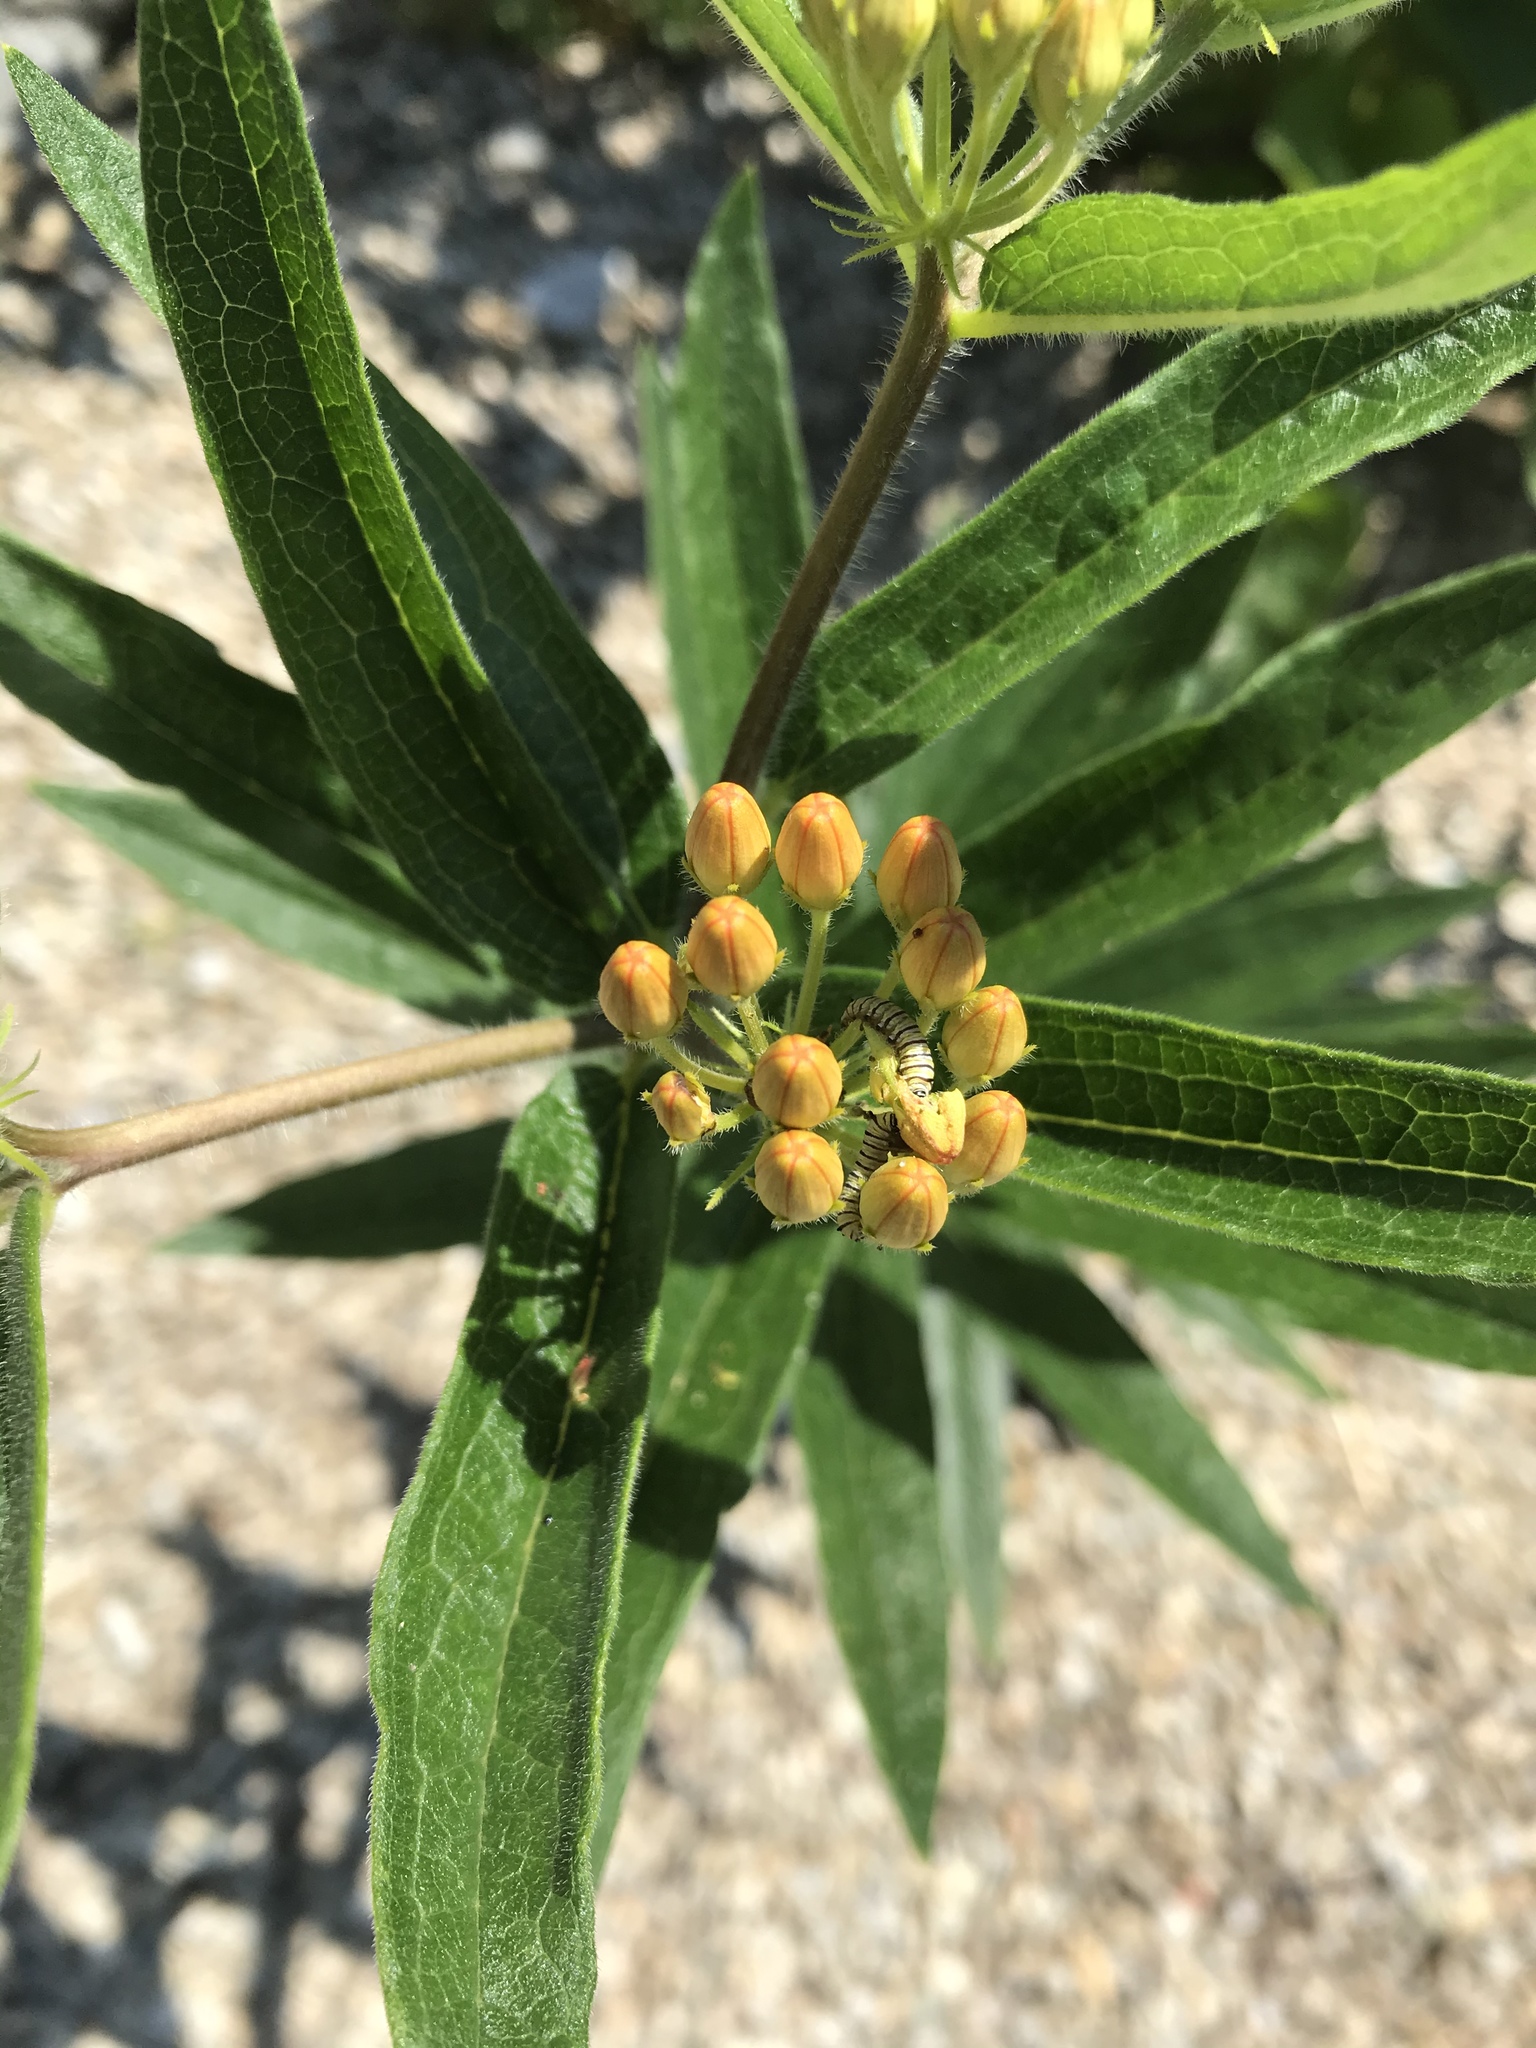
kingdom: Animalia
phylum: Arthropoda
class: Insecta
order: Lepidoptera
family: Nymphalidae
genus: Danaus
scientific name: Danaus plexippus
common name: Monarch
